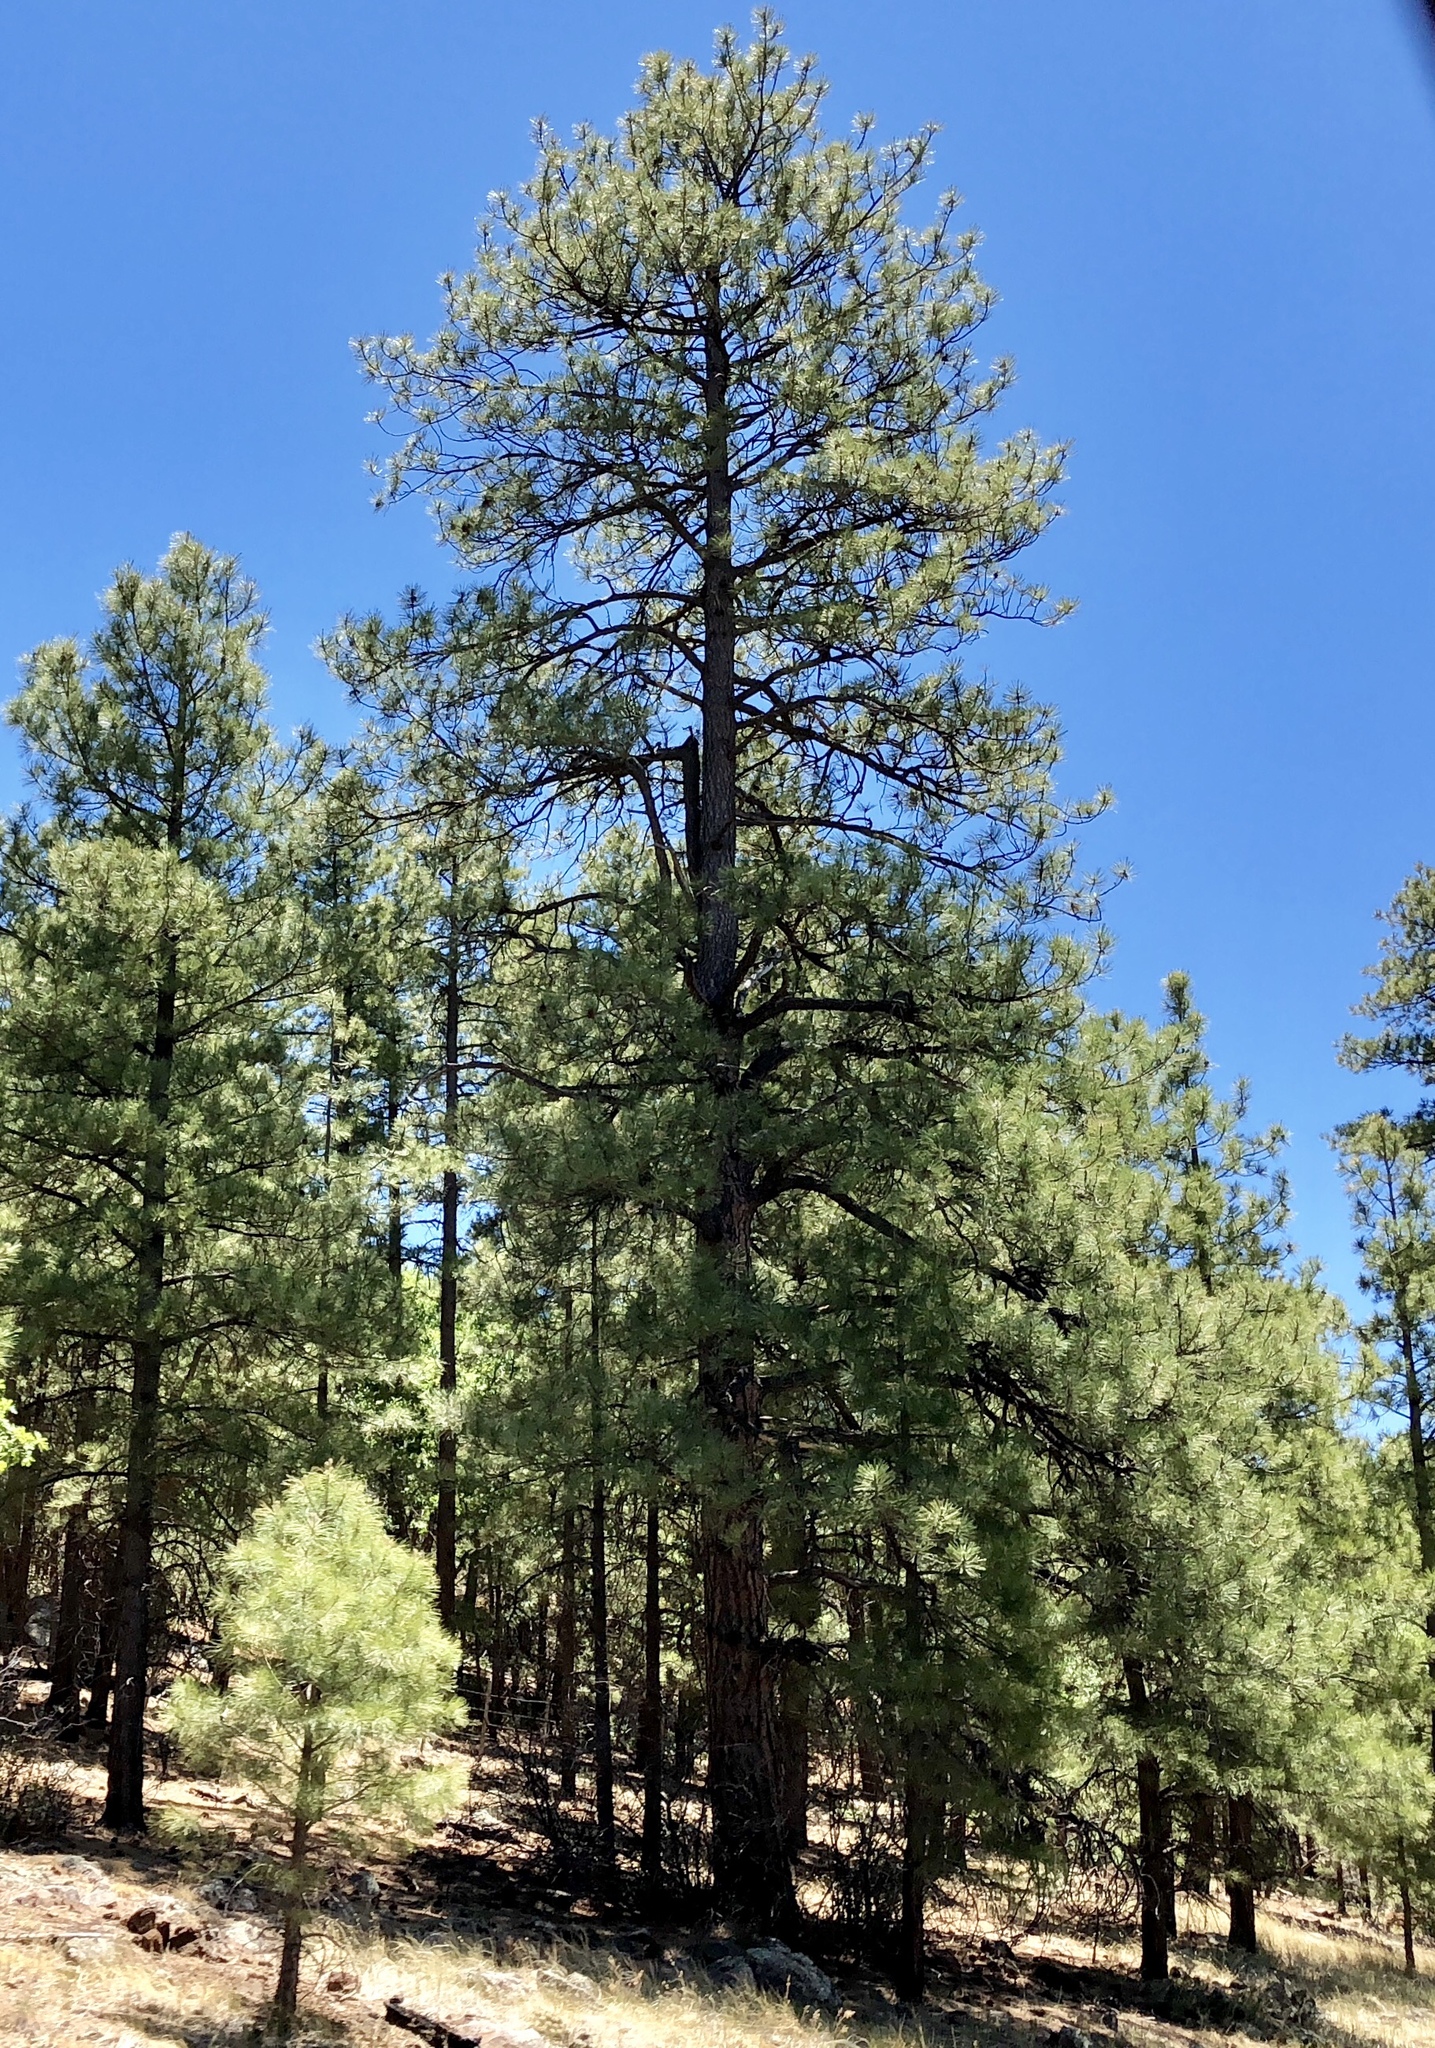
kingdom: Plantae
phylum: Tracheophyta
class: Pinopsida
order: Pinales
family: Pinaceae
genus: Pinus
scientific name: Pinus ponderosa
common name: Western yellow-pine
